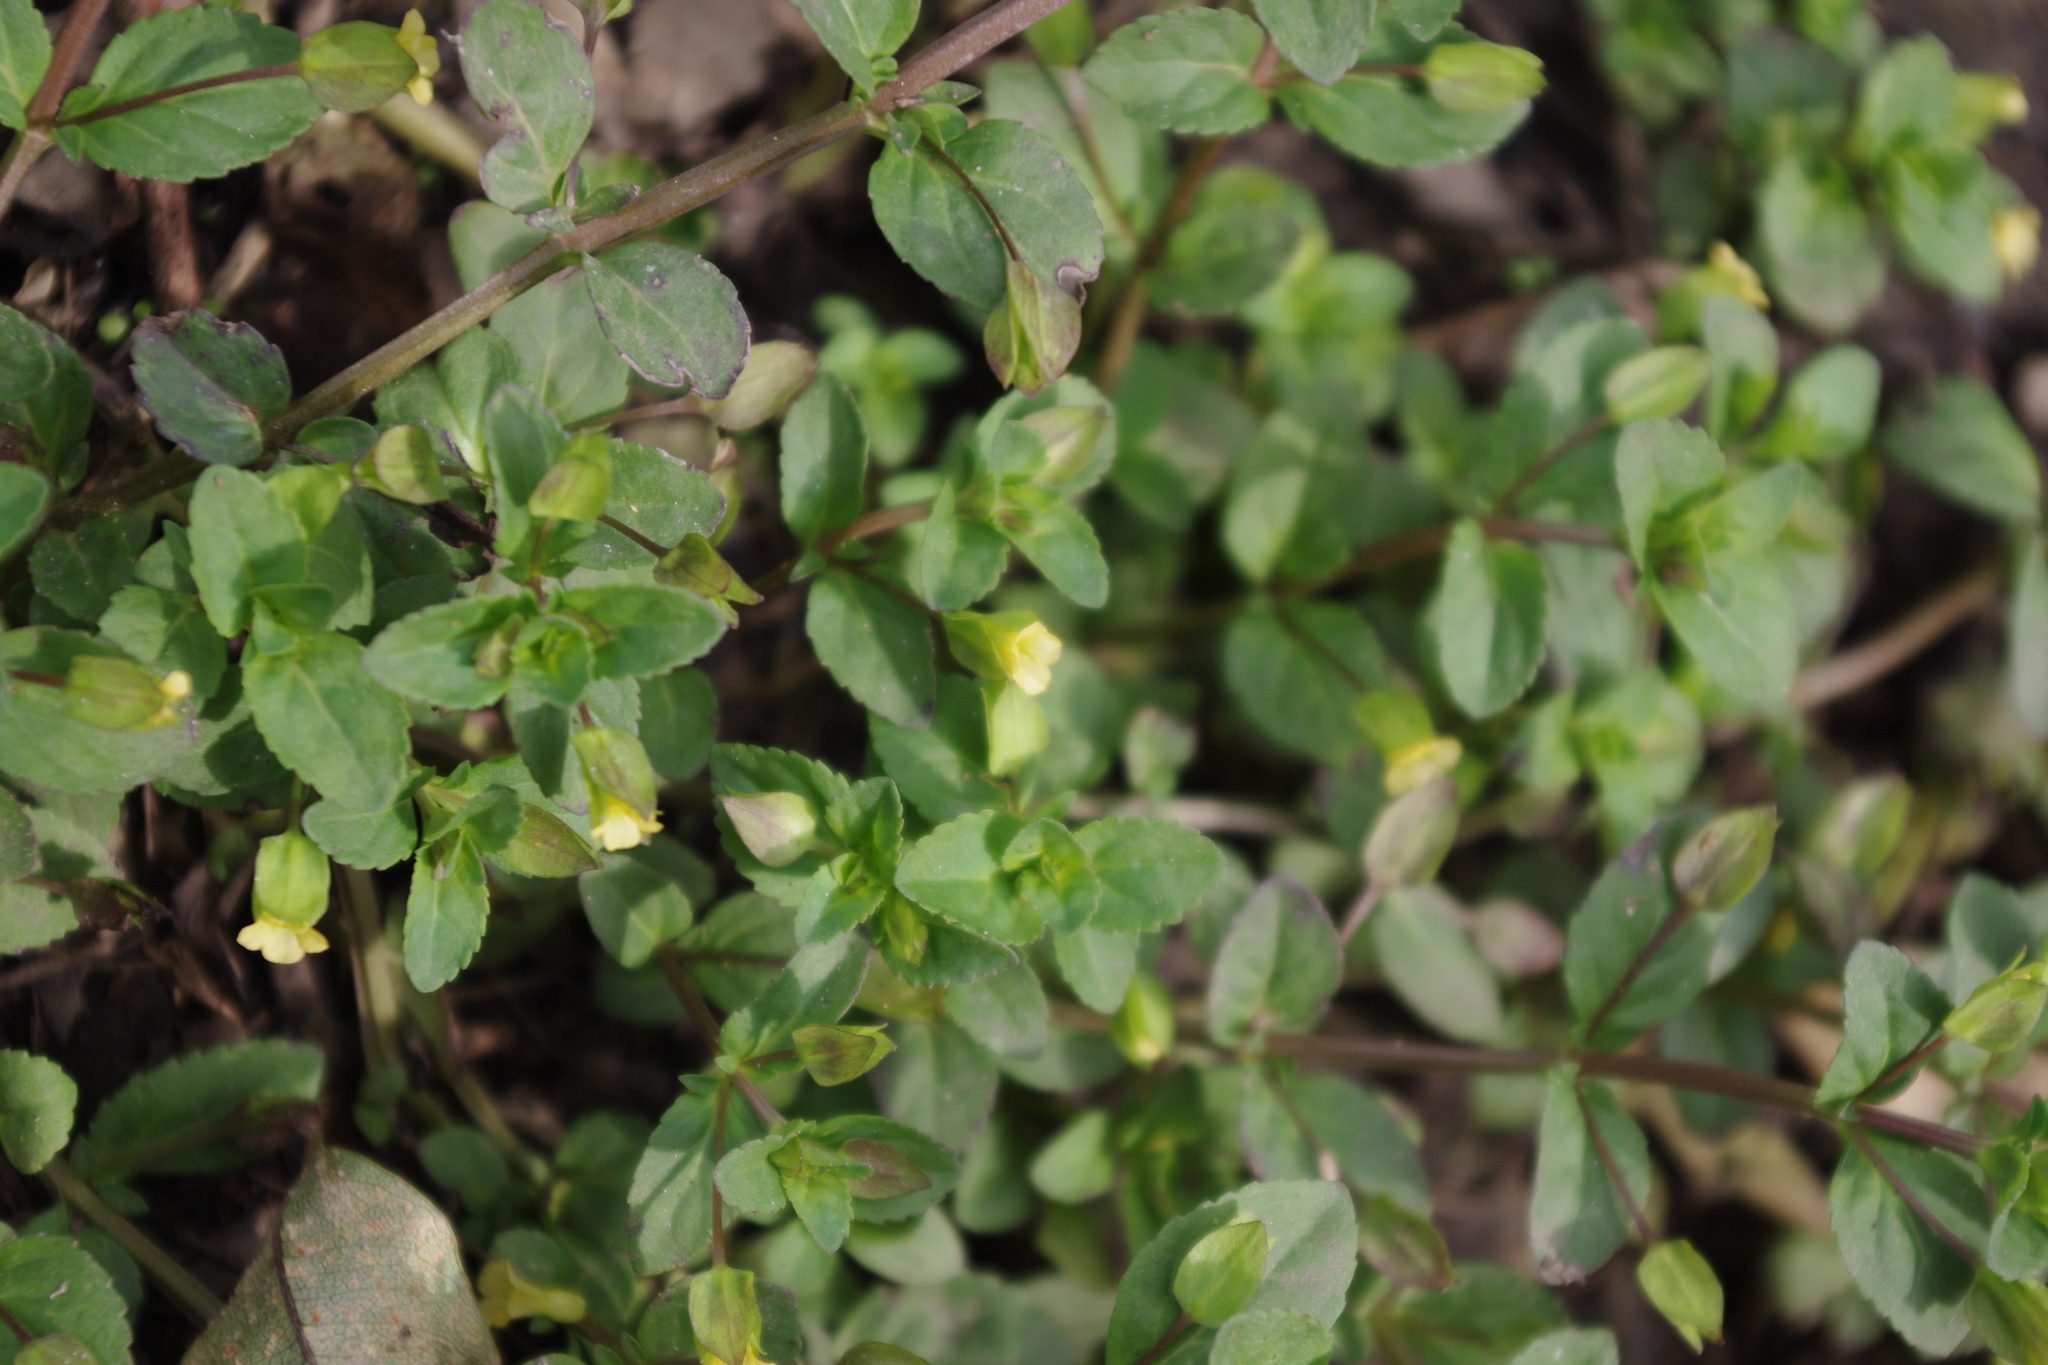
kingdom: Plantae
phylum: Tracheophyta
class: Magnoliopsida
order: Lamiales
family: Plantaginaceae
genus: Mecardonia
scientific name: Mecardonia procumbens
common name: Baby jump-up
